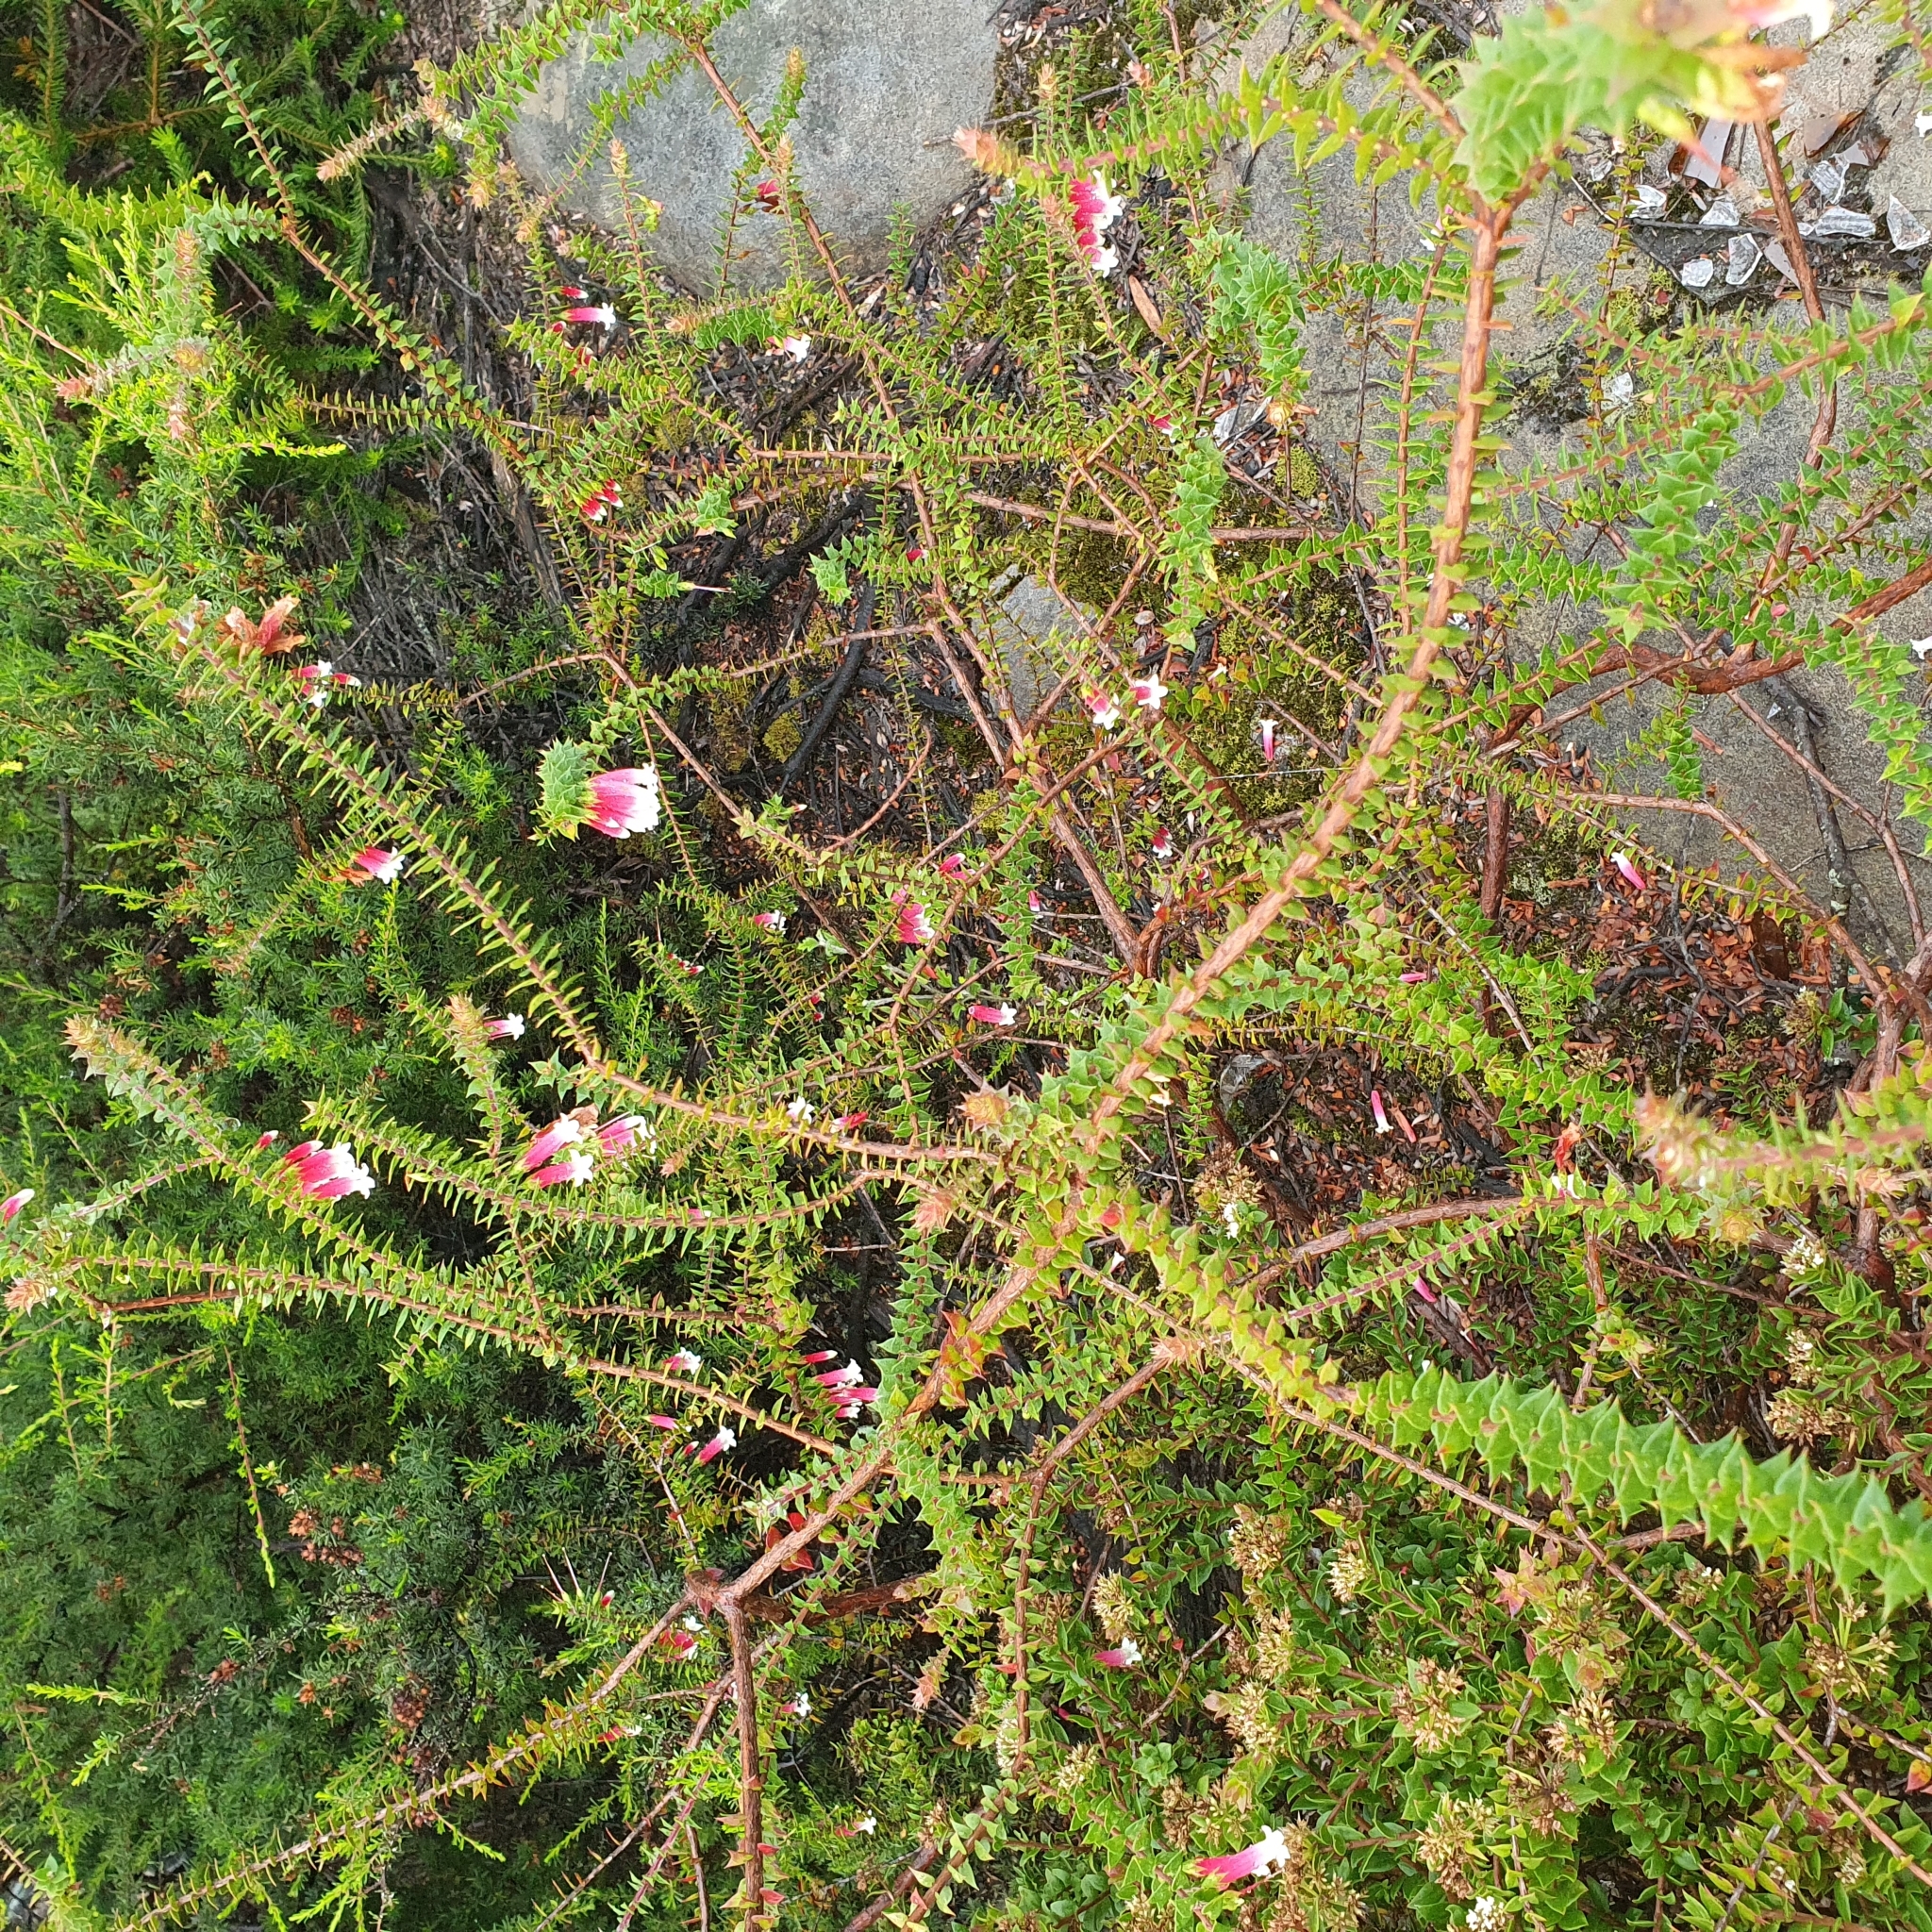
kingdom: Plantae
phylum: Tracheophyta
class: Magnoliopsida
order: Ericales
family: Ericaceae
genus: Epacris
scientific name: Epacris longiflora
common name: Fuchsia-heath
